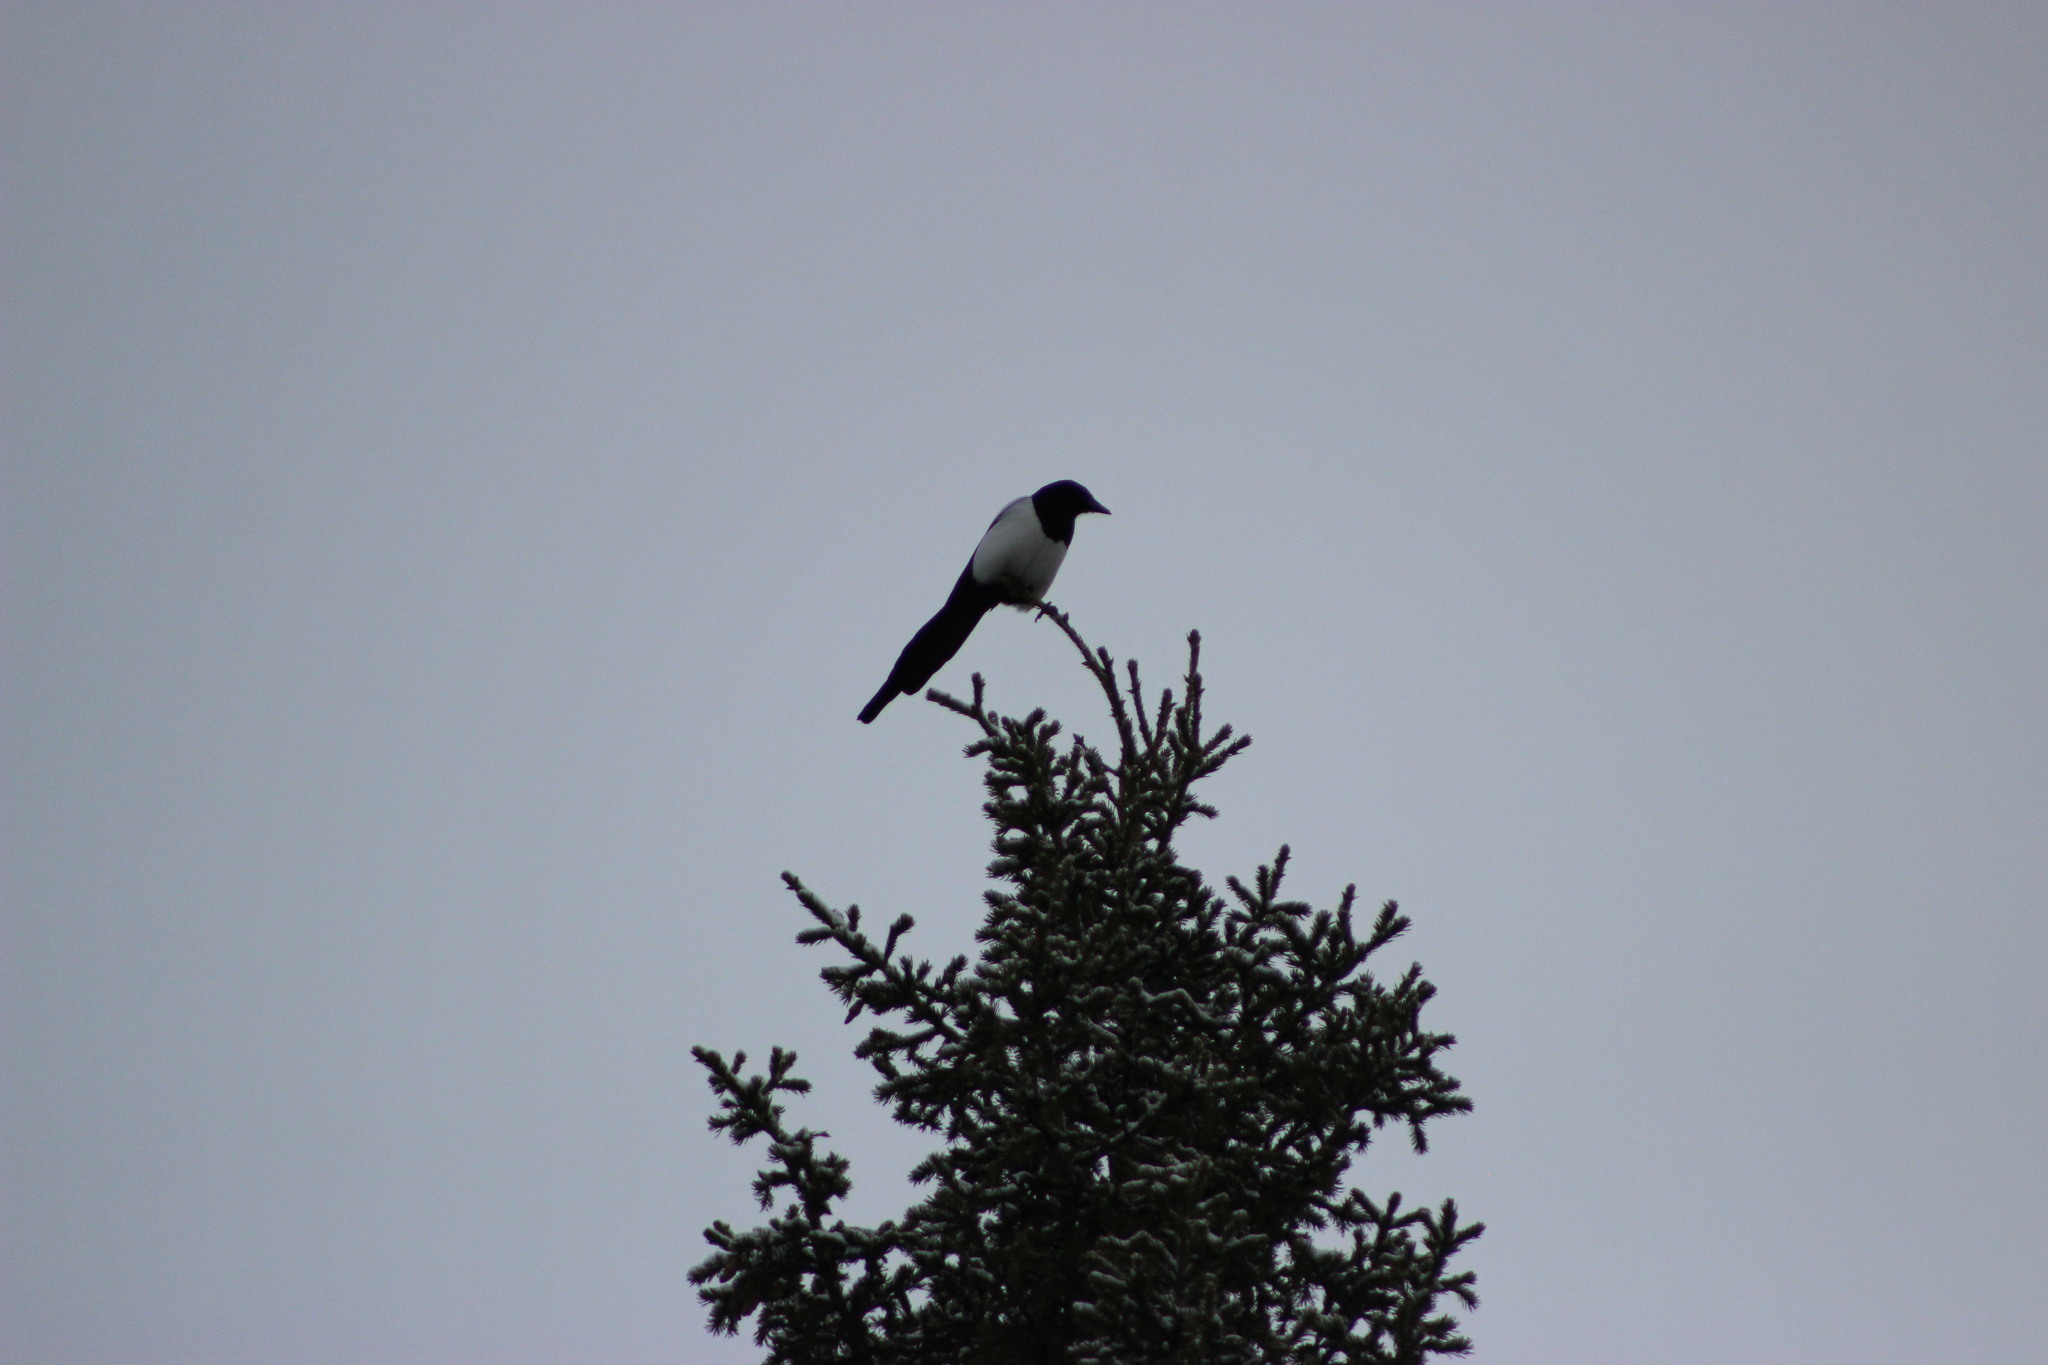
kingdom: Animalia
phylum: Chordata
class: Aves
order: Passeriformes
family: Corvidae
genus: Pica
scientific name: Pica pica
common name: Eurasian magpie
